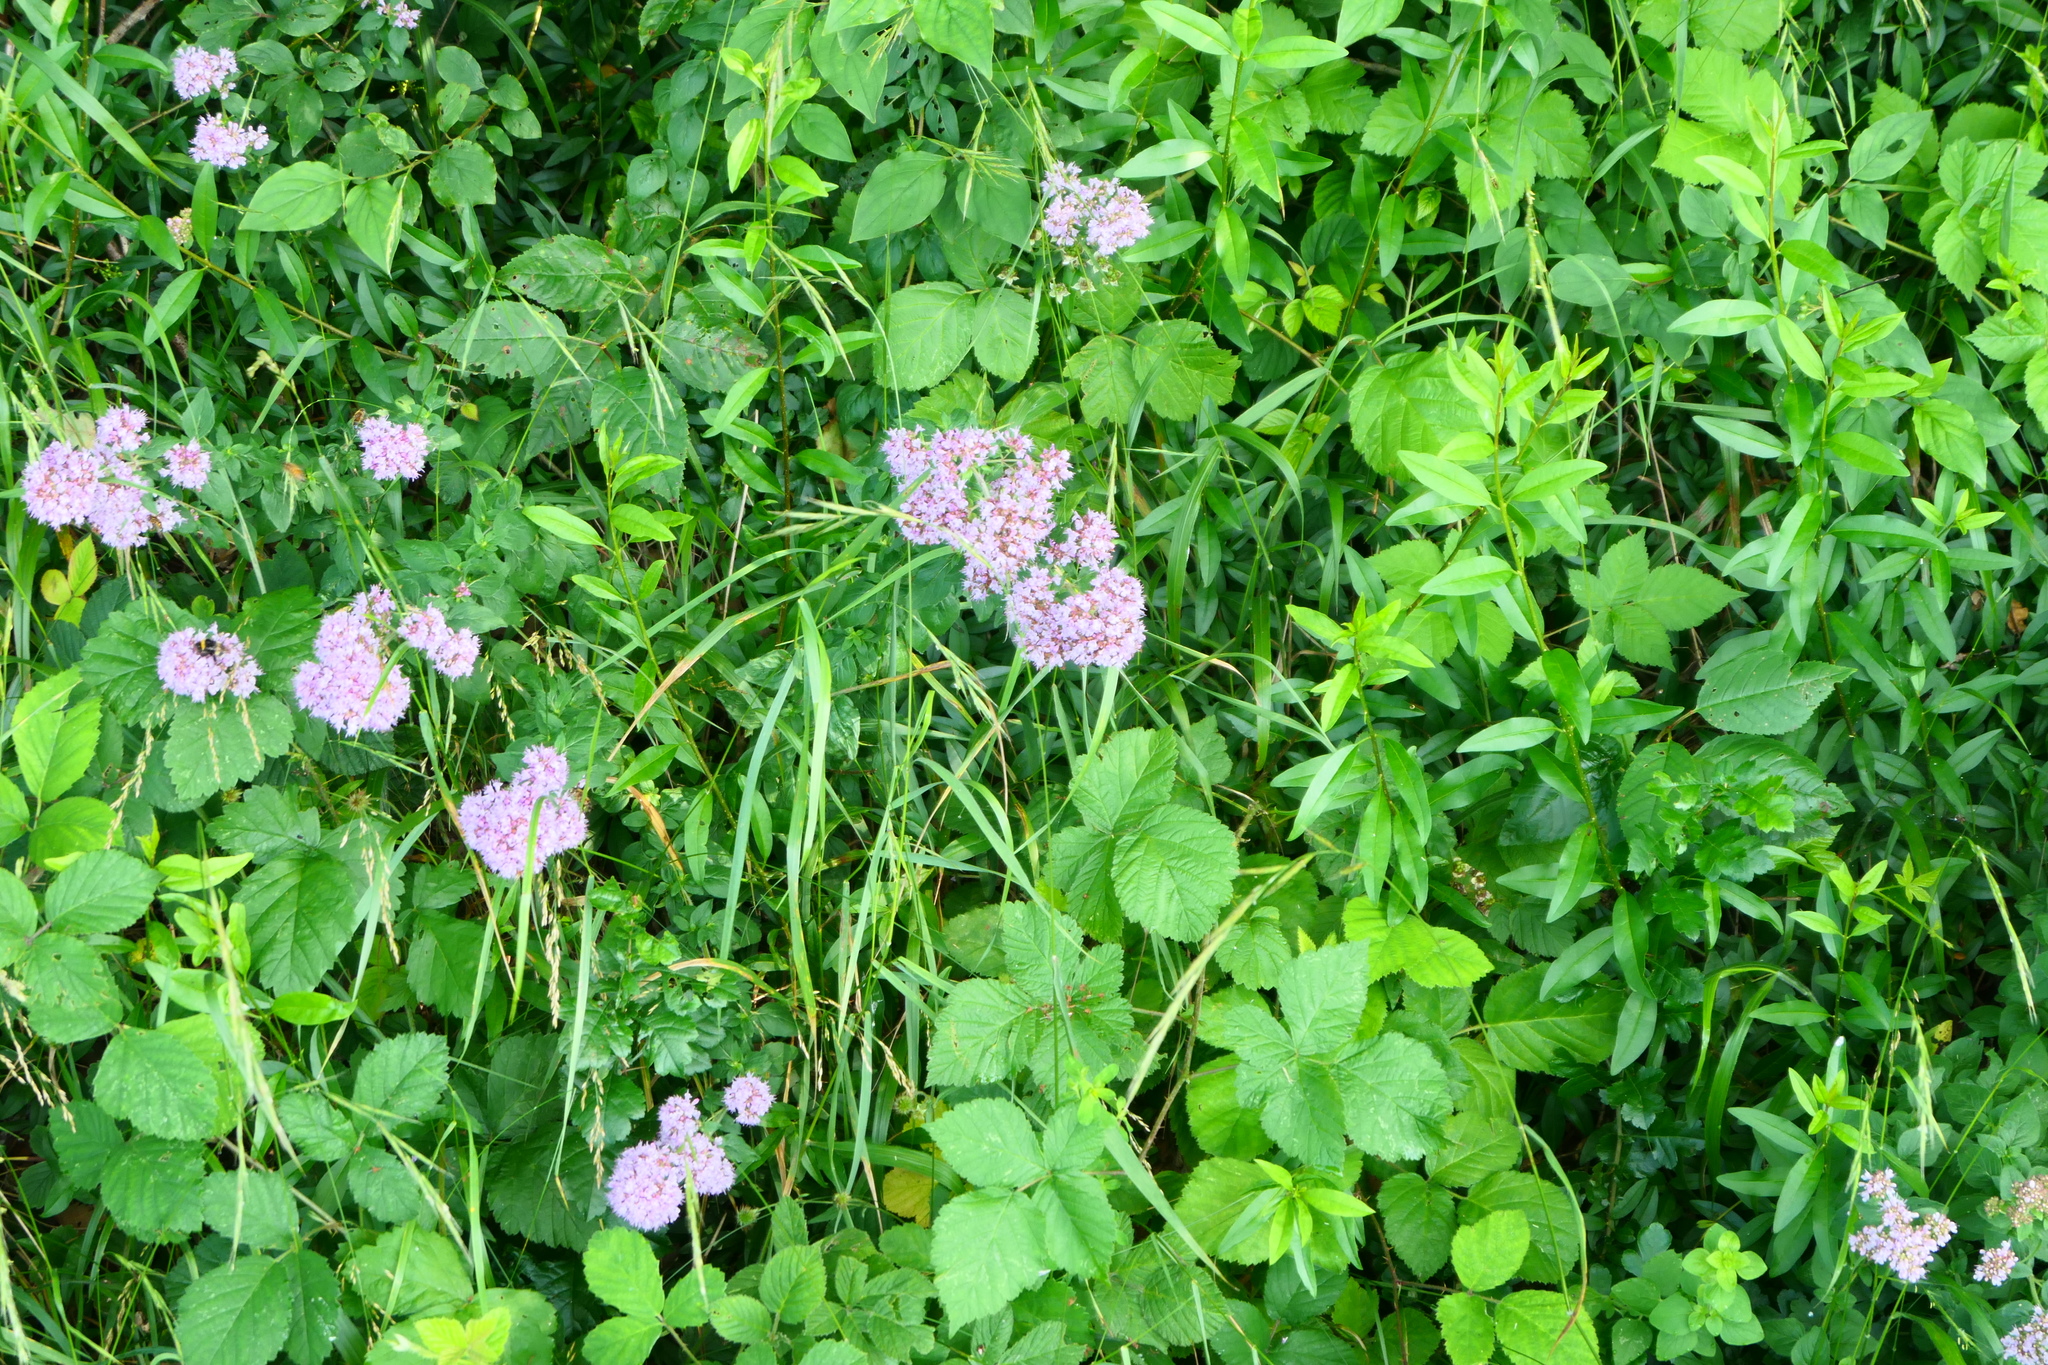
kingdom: Plantae
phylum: Tracheophyta
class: Magnoliopsida
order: Lamiales
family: Lamiaceae
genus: Origanum
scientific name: Origanum vulgare
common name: Wild marjoram
